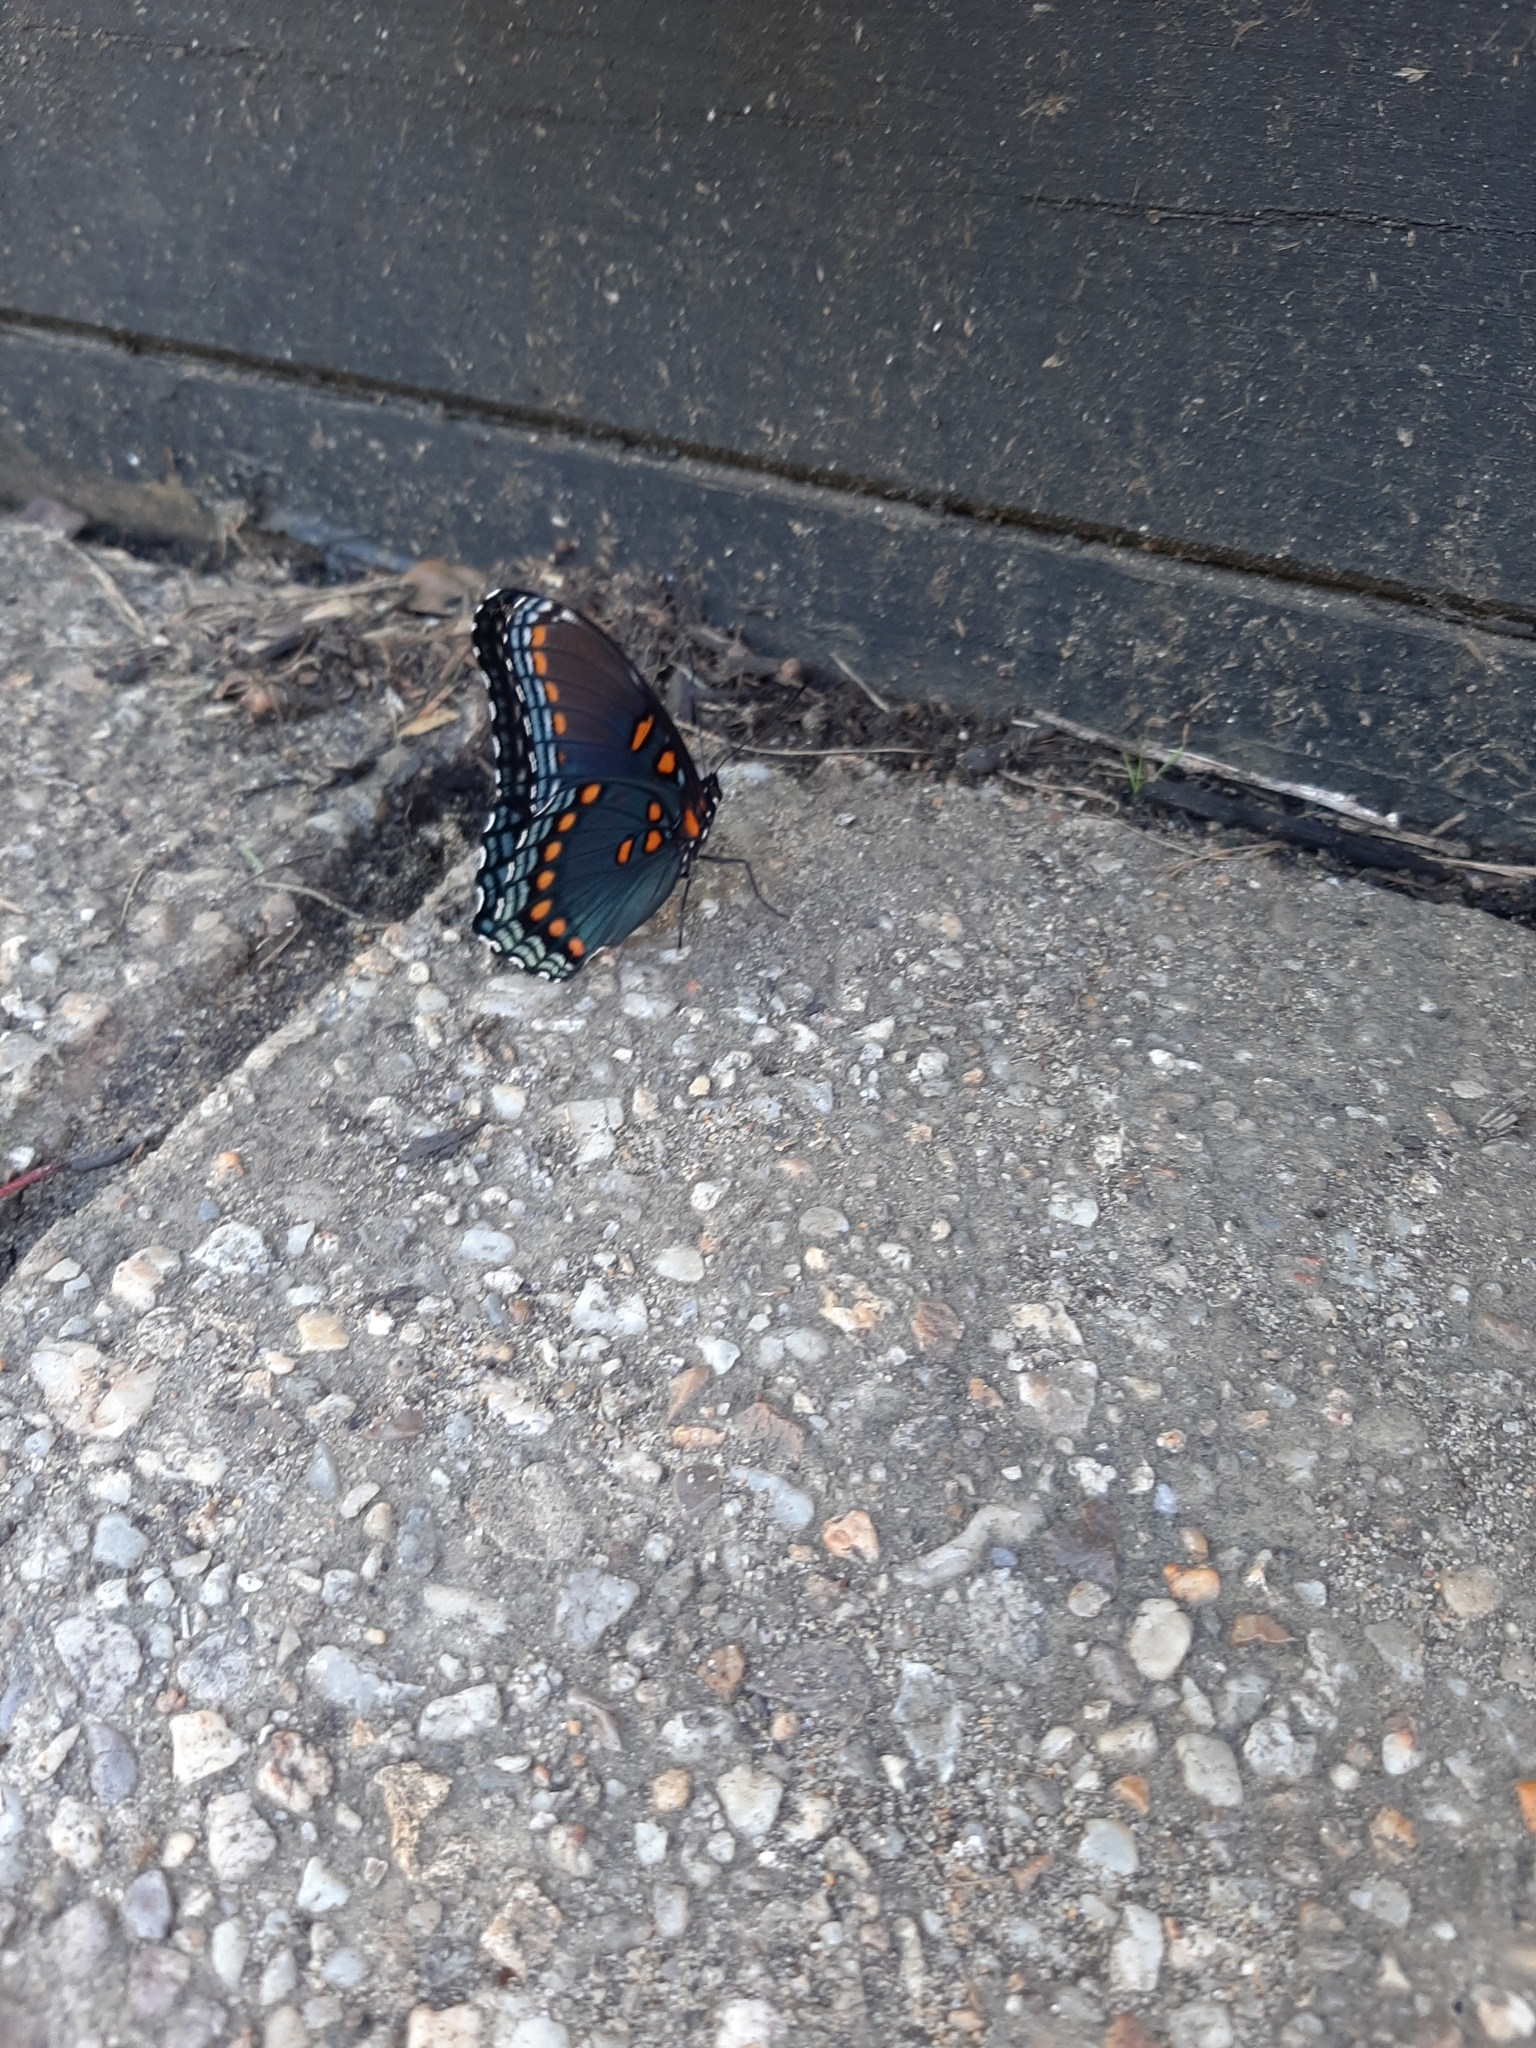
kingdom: Animalia
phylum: Arthropoda
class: Insecta
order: Lepidoptera
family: Nymphalidae
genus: Limenitis
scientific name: Limenitis astyanax
